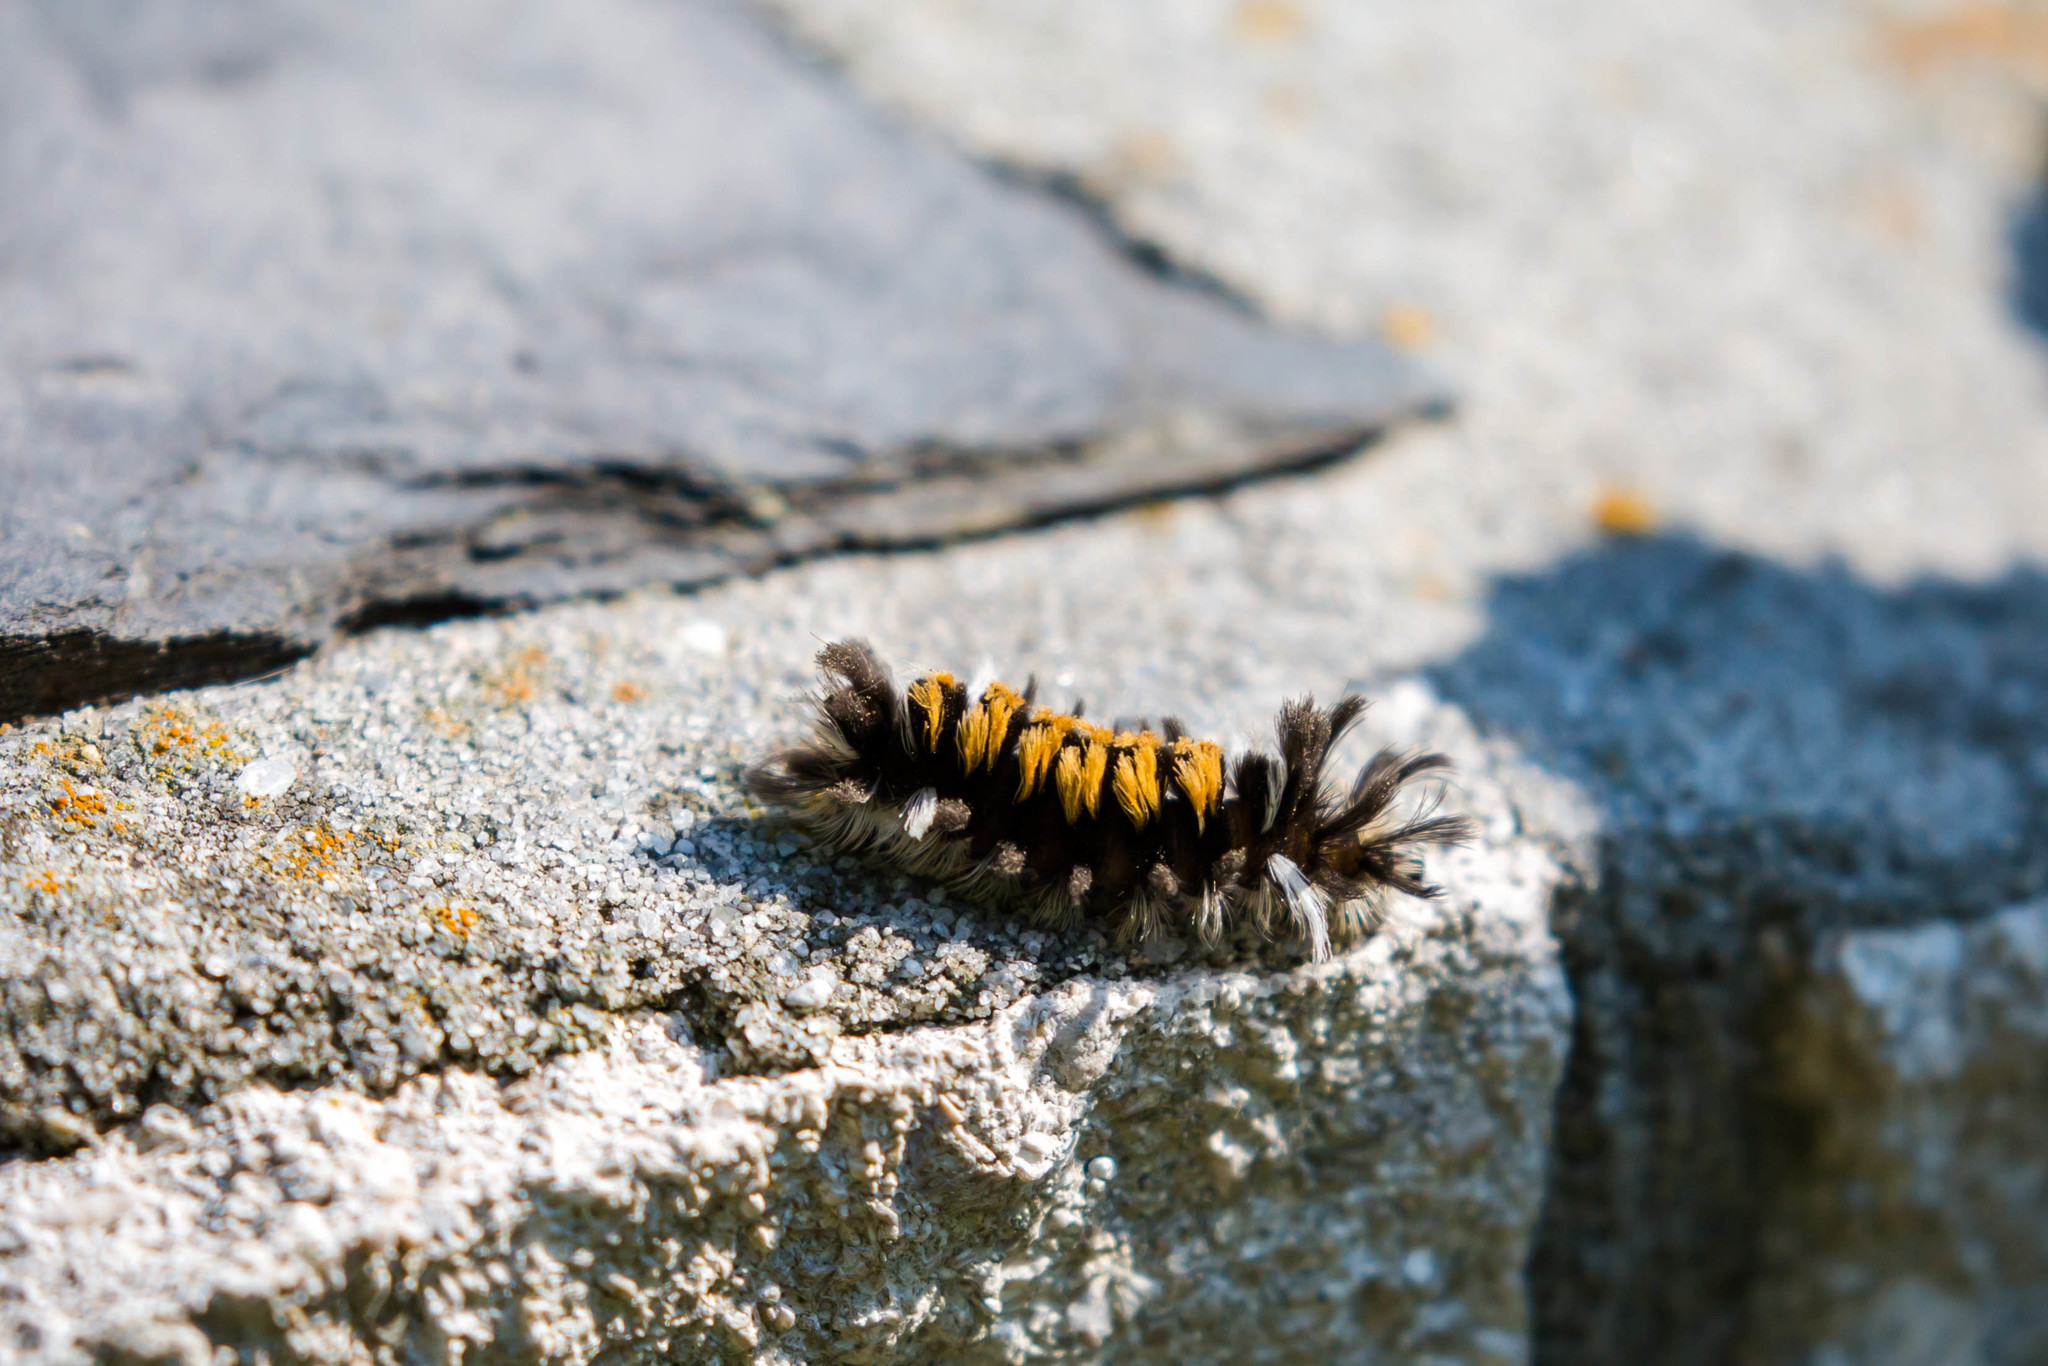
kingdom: Animalia
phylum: Arthropoda
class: Insecta
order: Lepidoptera
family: Erebidae
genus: Euchaetes
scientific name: Euchaetes egle
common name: Milkweed tussock moth
